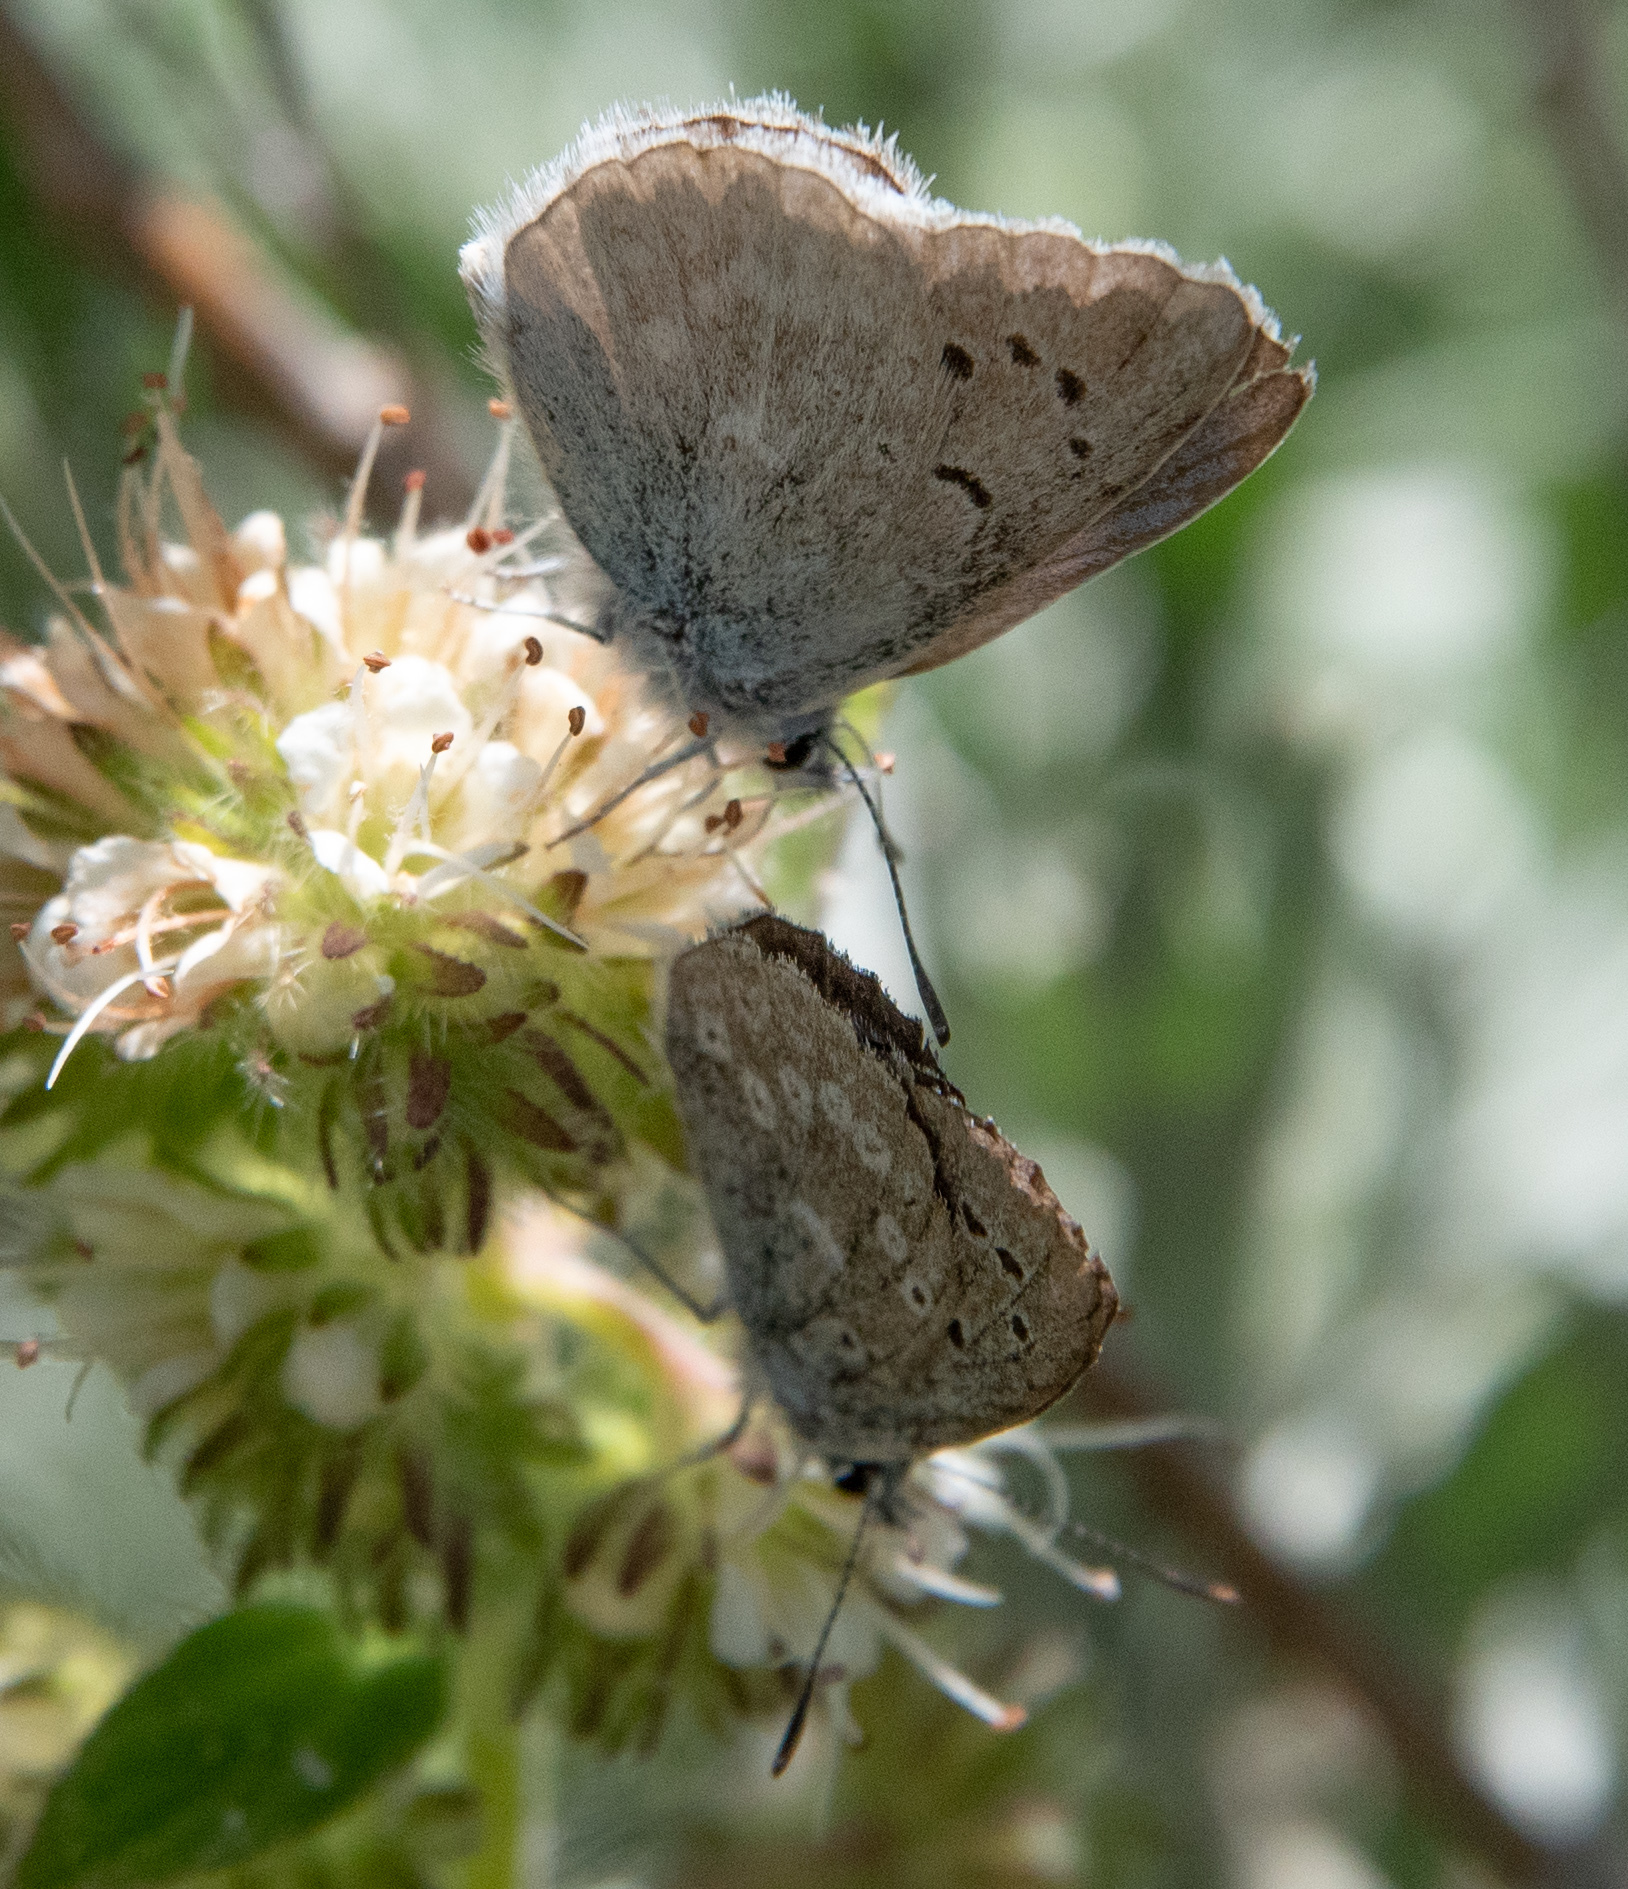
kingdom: Animalia
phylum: Arthropoda
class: Insecta
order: Lepidoptera
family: Lycaenidae
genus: Icaricia
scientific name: Icaricia icarioides
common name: Boisduval's blue
